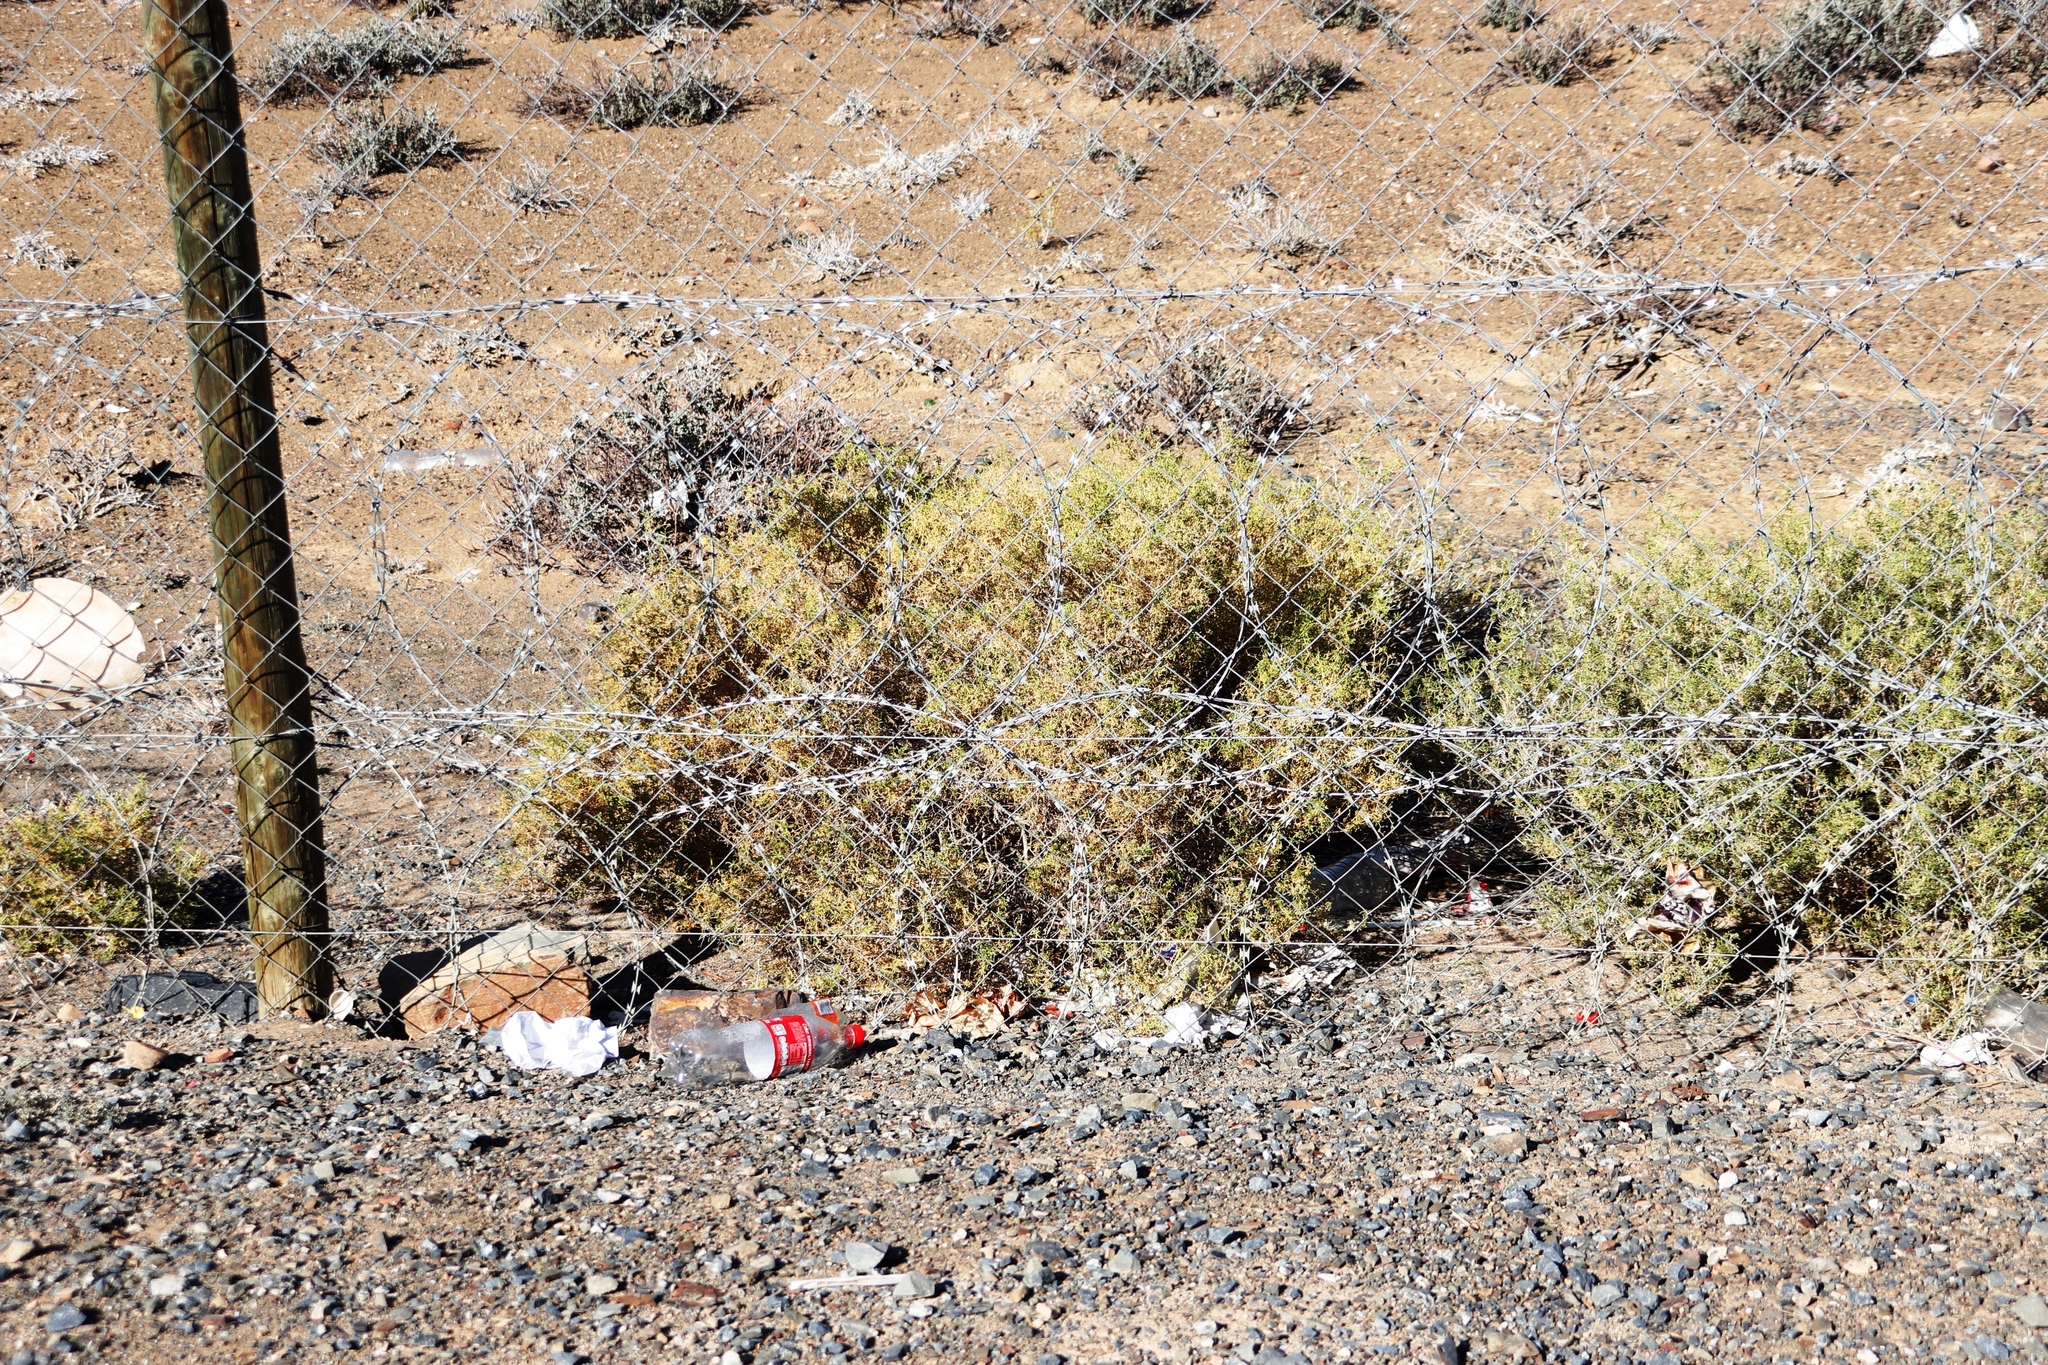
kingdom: Plantae
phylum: Tracheophyta
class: Magnoliopsida
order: Caryophyllales
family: Aizoaceae
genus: Aizoon
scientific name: Aizoon africanum
